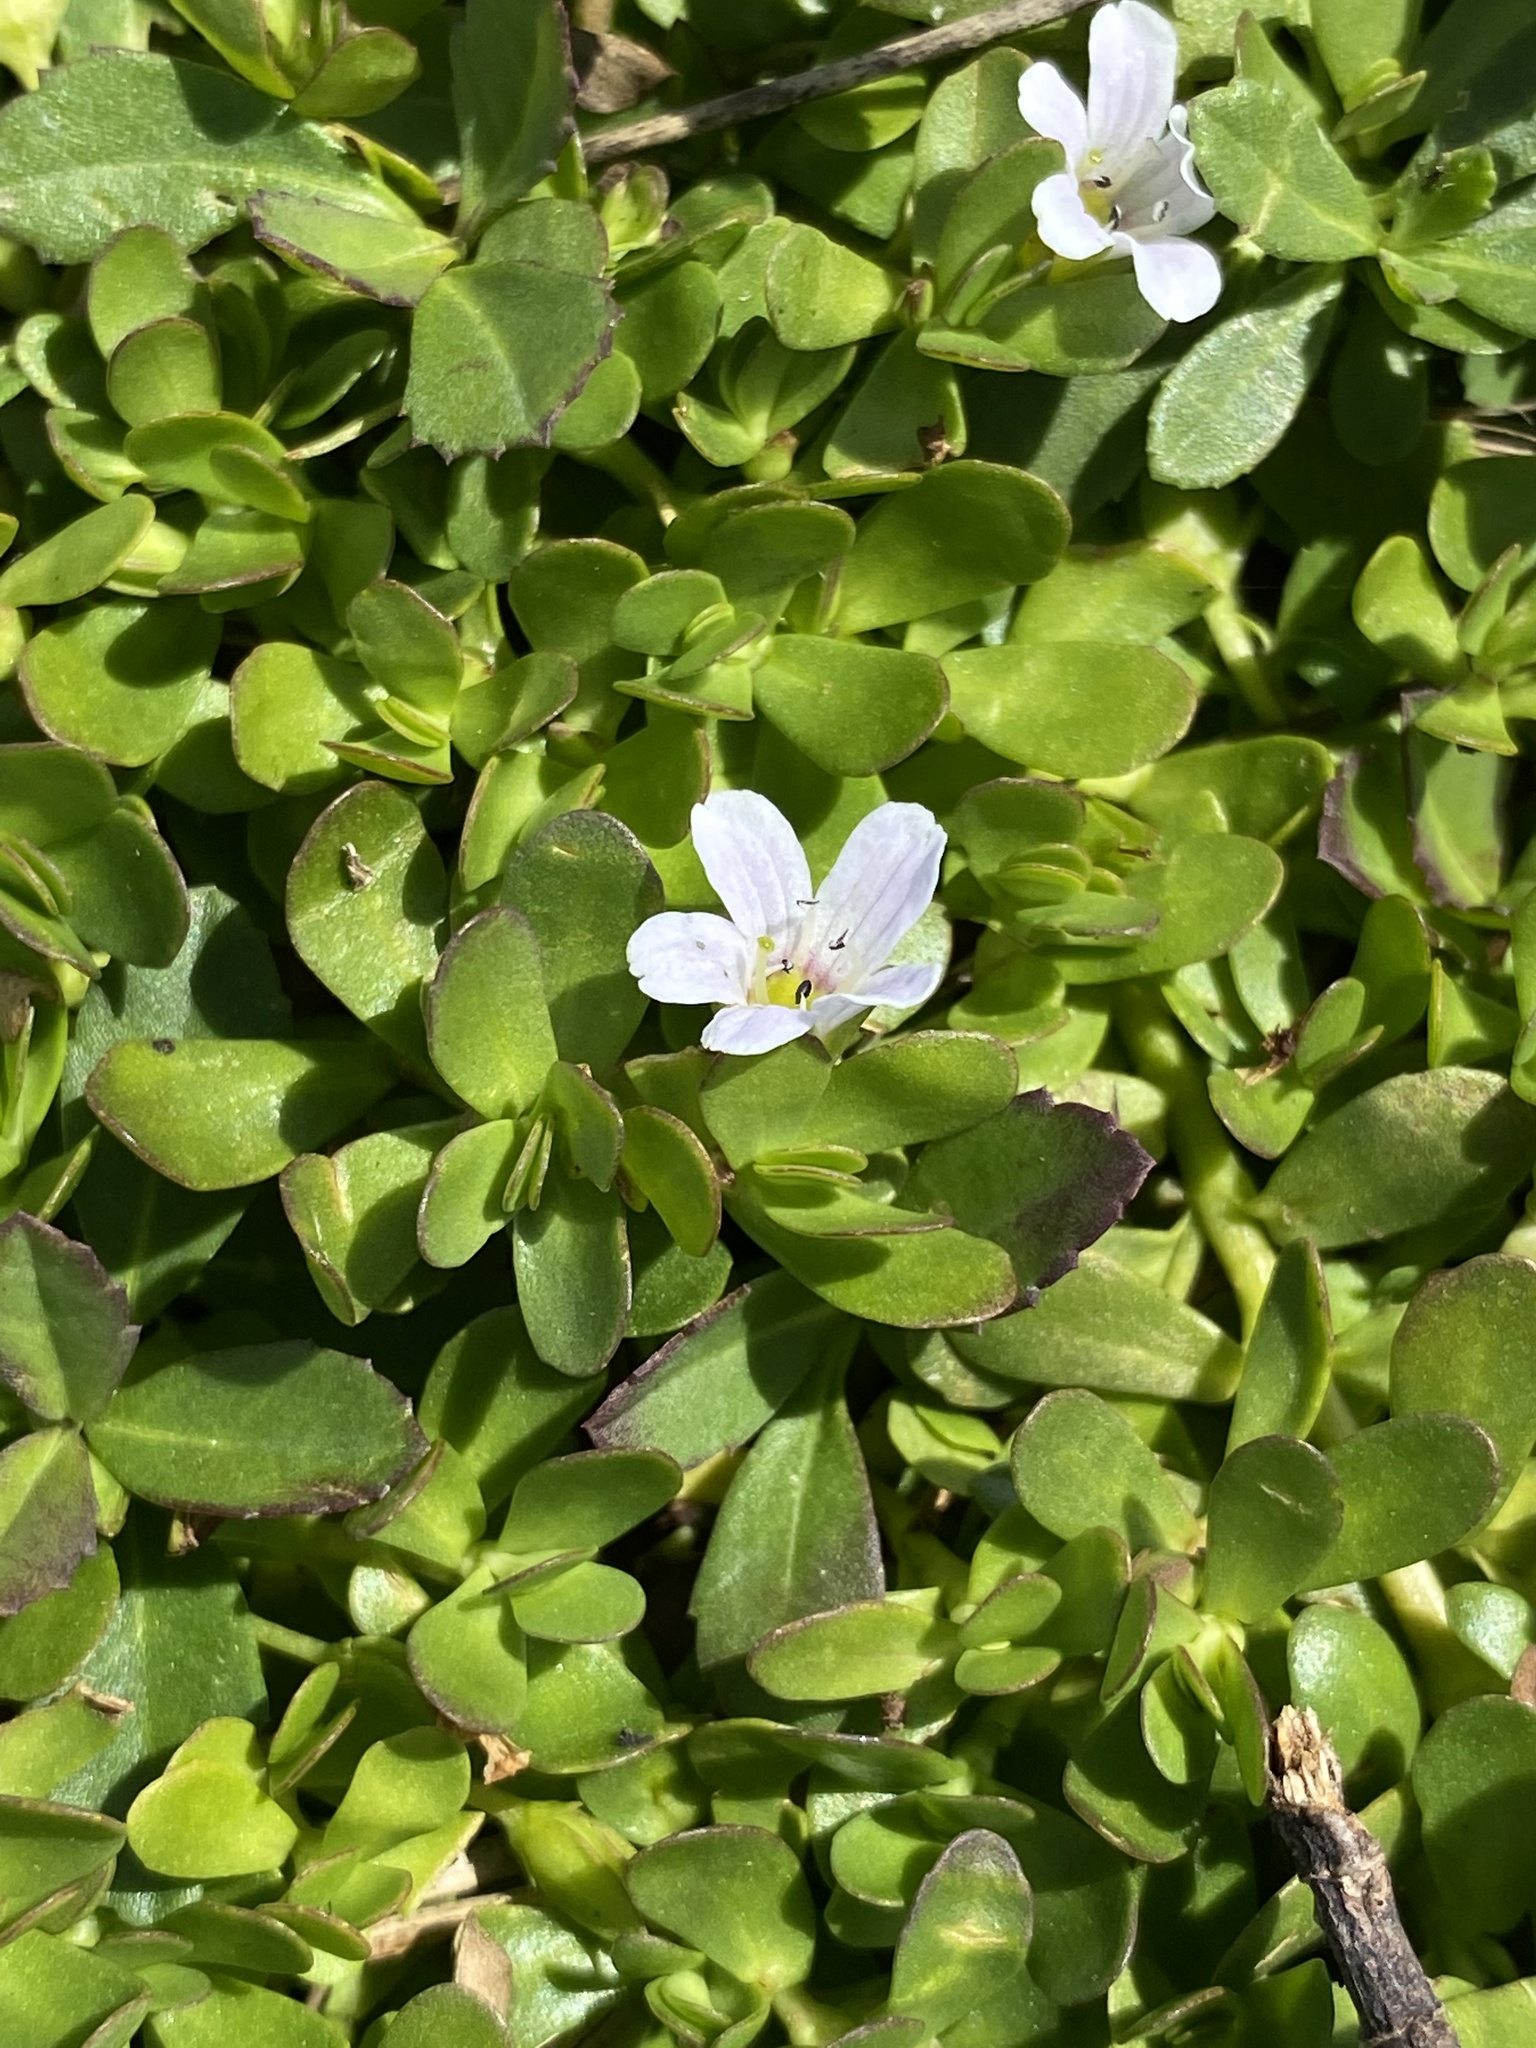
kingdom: Plantae
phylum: Tracheophyta
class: Magnoliopsida
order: Lamiales
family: Plantaginaceae
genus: Bacopa
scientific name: Bacopa monnieri
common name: Indian-pennywort
